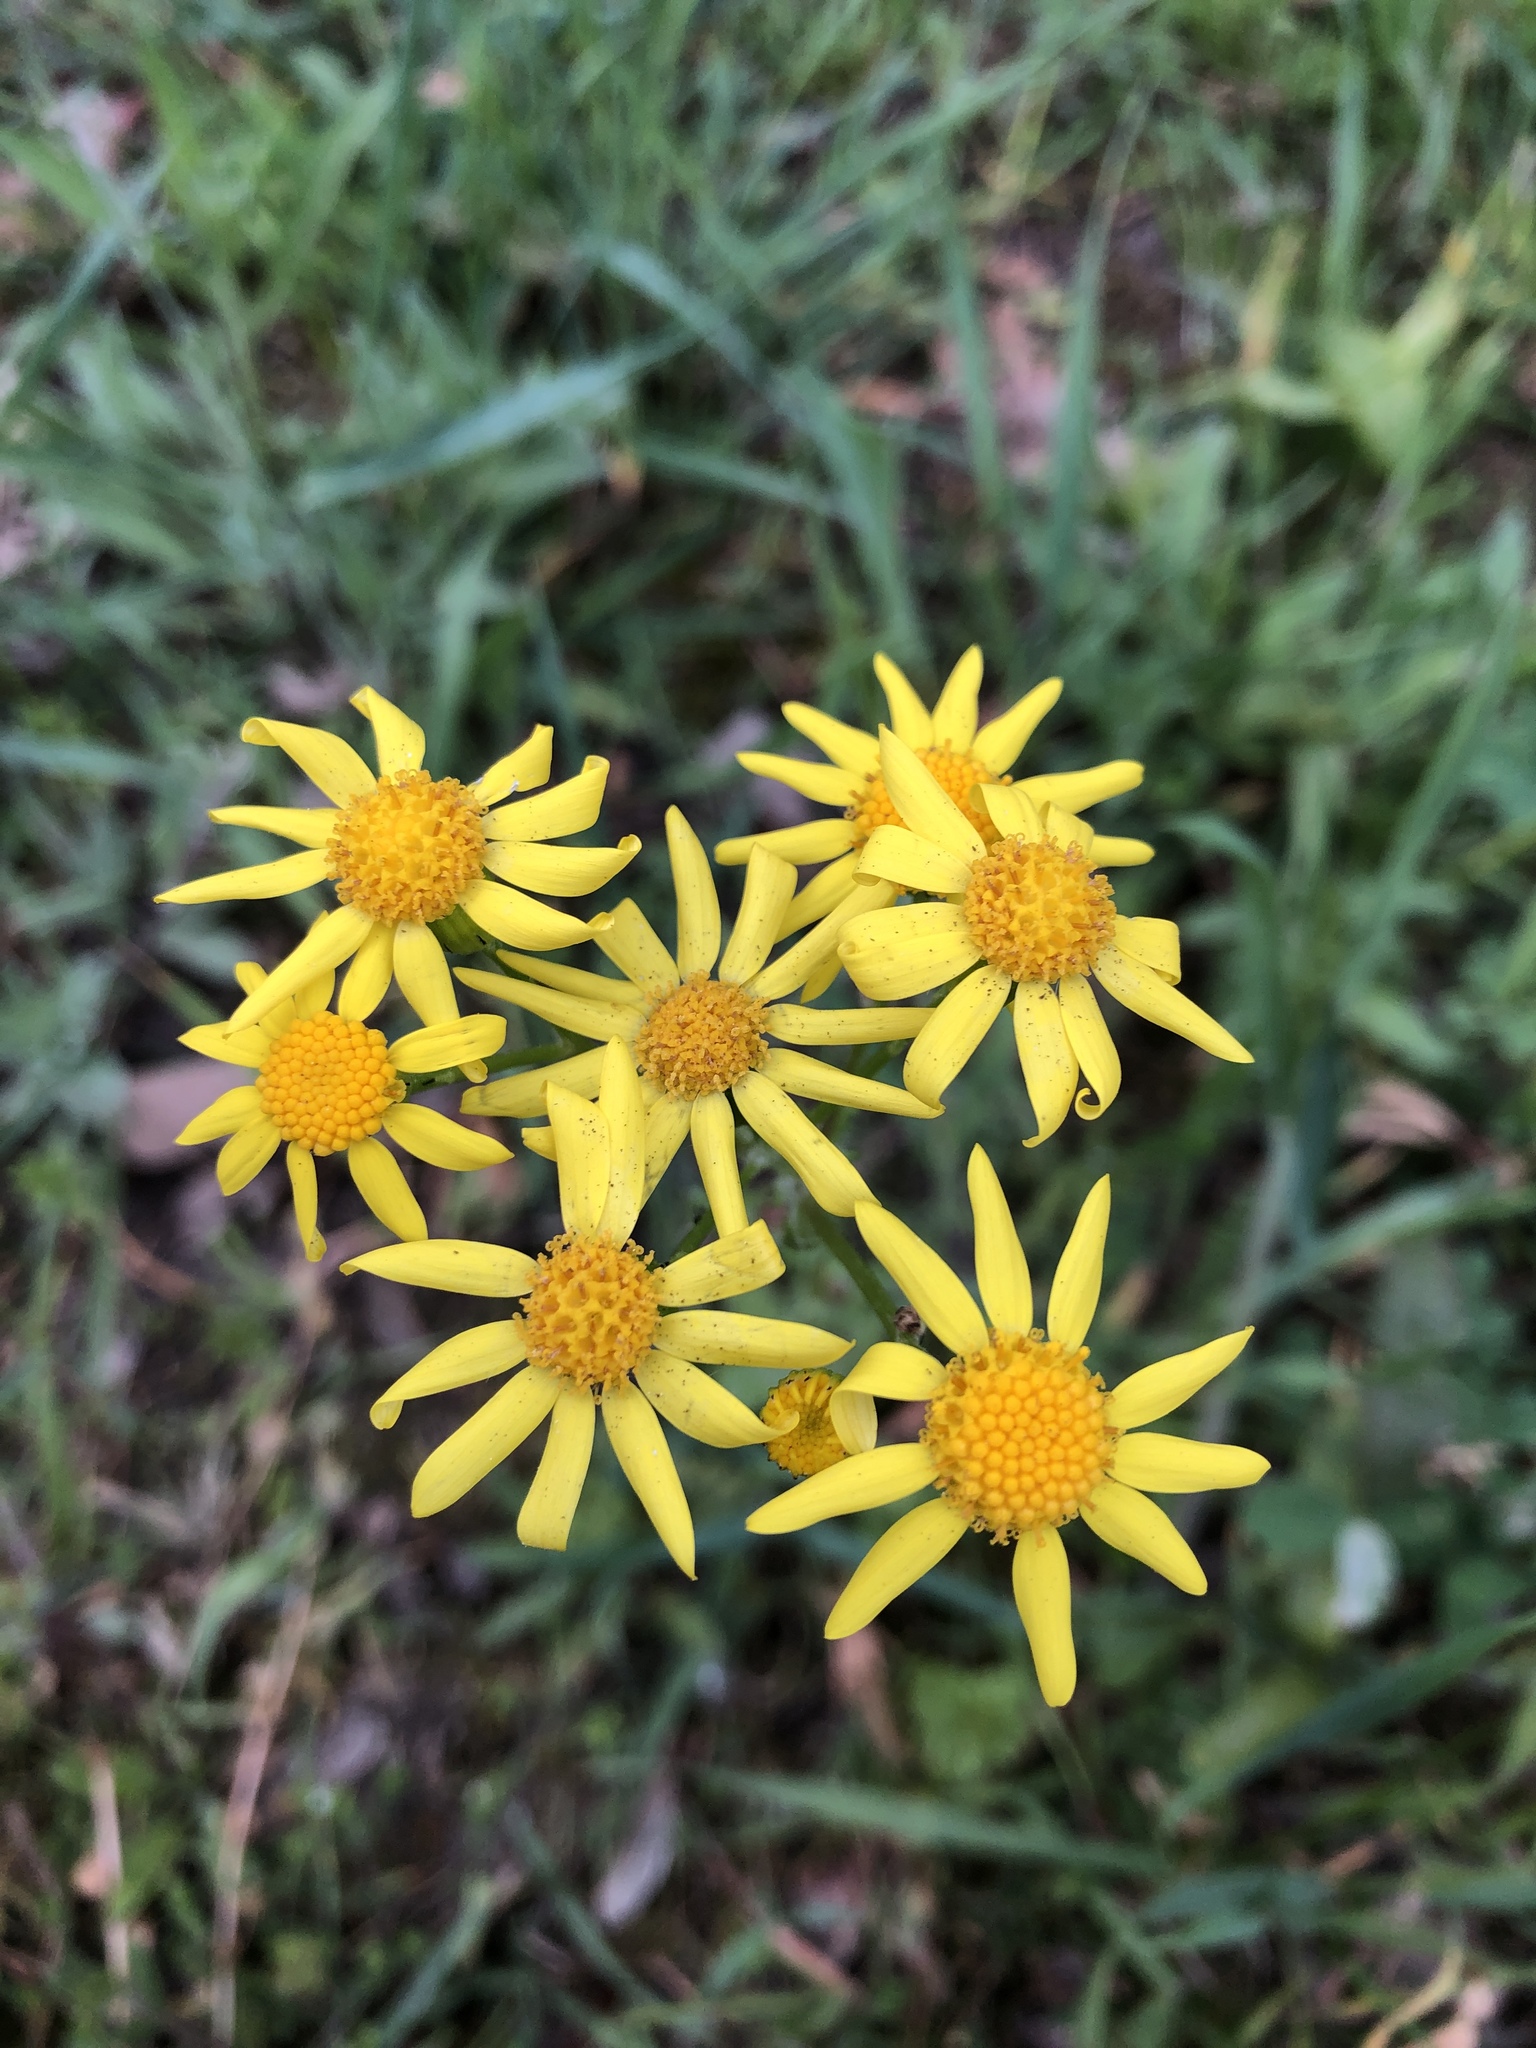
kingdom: Plantae
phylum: Tracheophyta
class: Magnoliopsida
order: Asterales
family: Asteraceae
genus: Senecio
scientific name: Senecio vernalis
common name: Eastern groundsel
